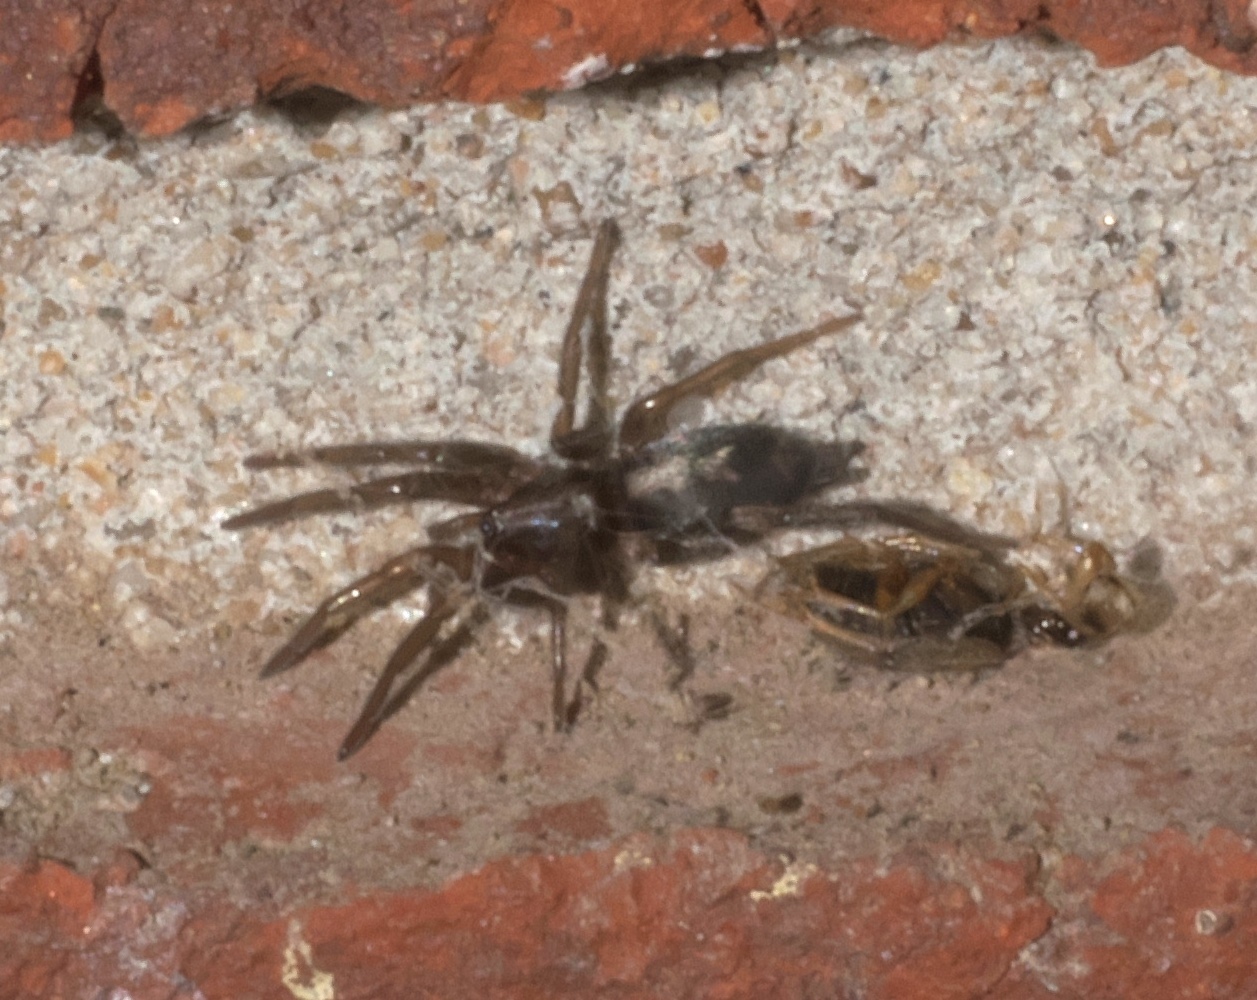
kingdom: Animalia
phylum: Arthropoda
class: Arachnida
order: Araneae
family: Gnaphosidae
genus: Herpyllus
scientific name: Herpyllus ecclesiasticus
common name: Eastern parson spider
